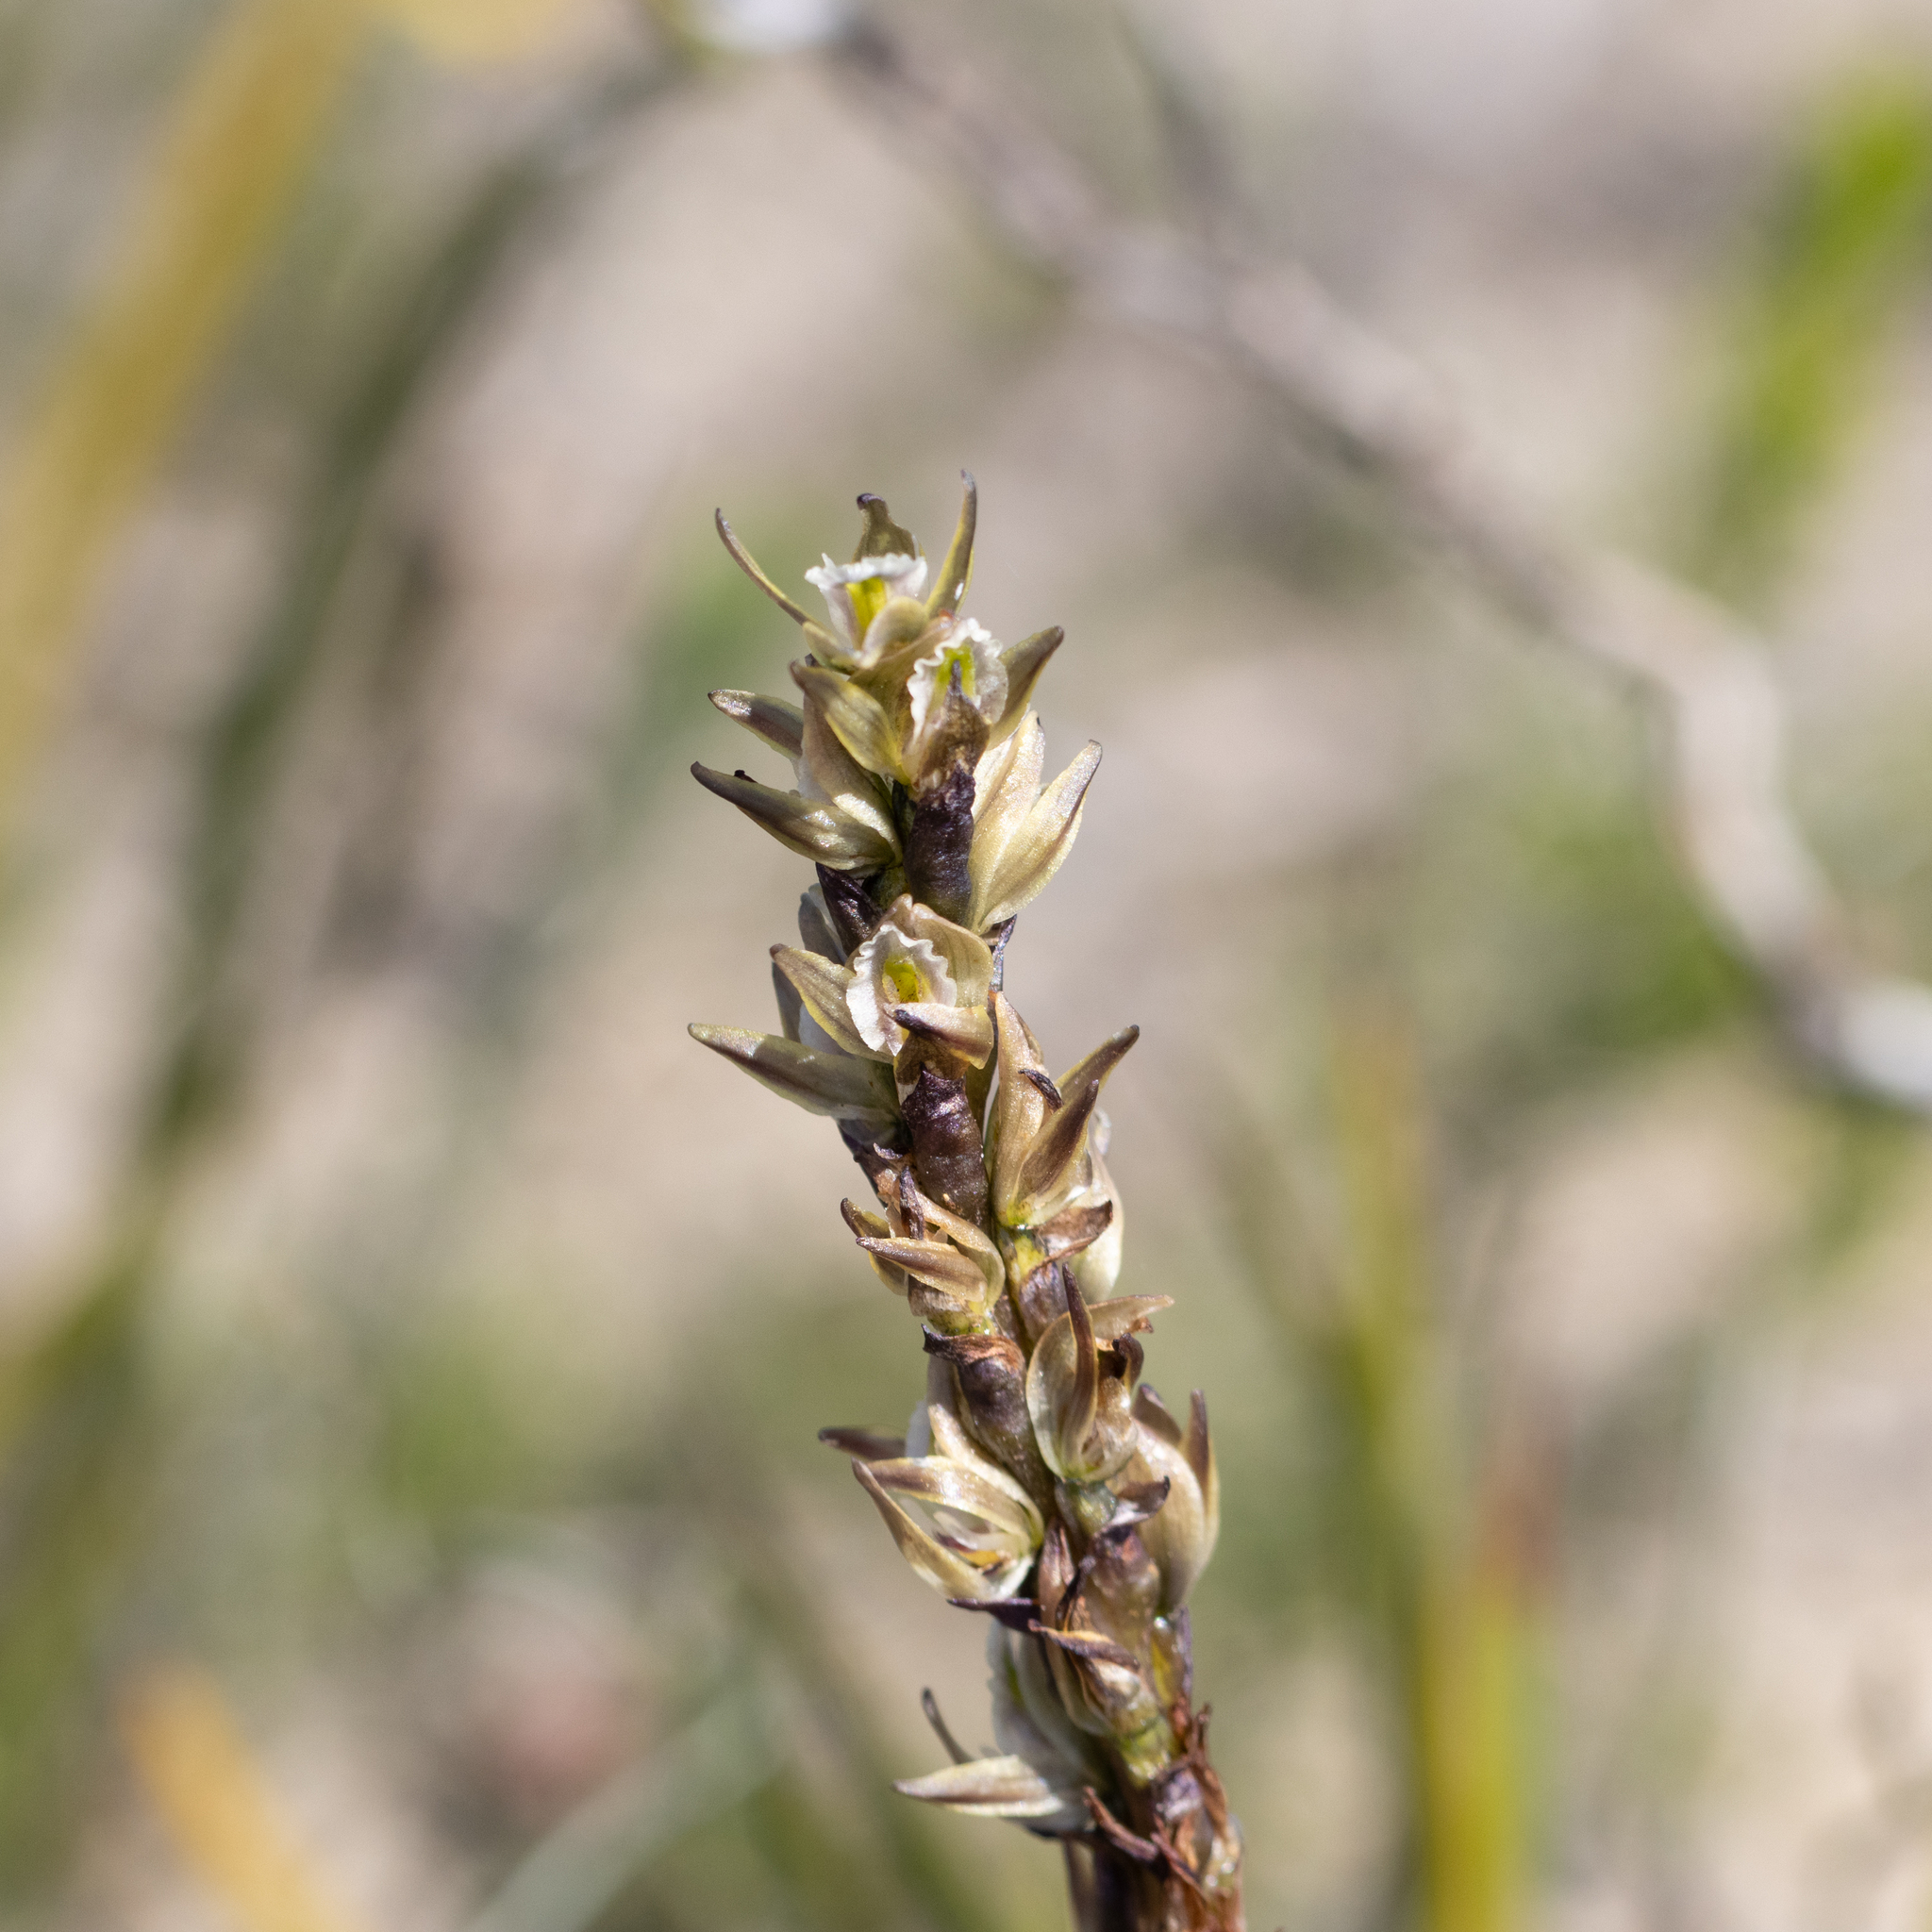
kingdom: Plantae
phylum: Tracheophyta
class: Liliopsida
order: Asparagales
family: Orchidaceae
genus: Prasophyllum
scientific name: Prasophyllum elatum
